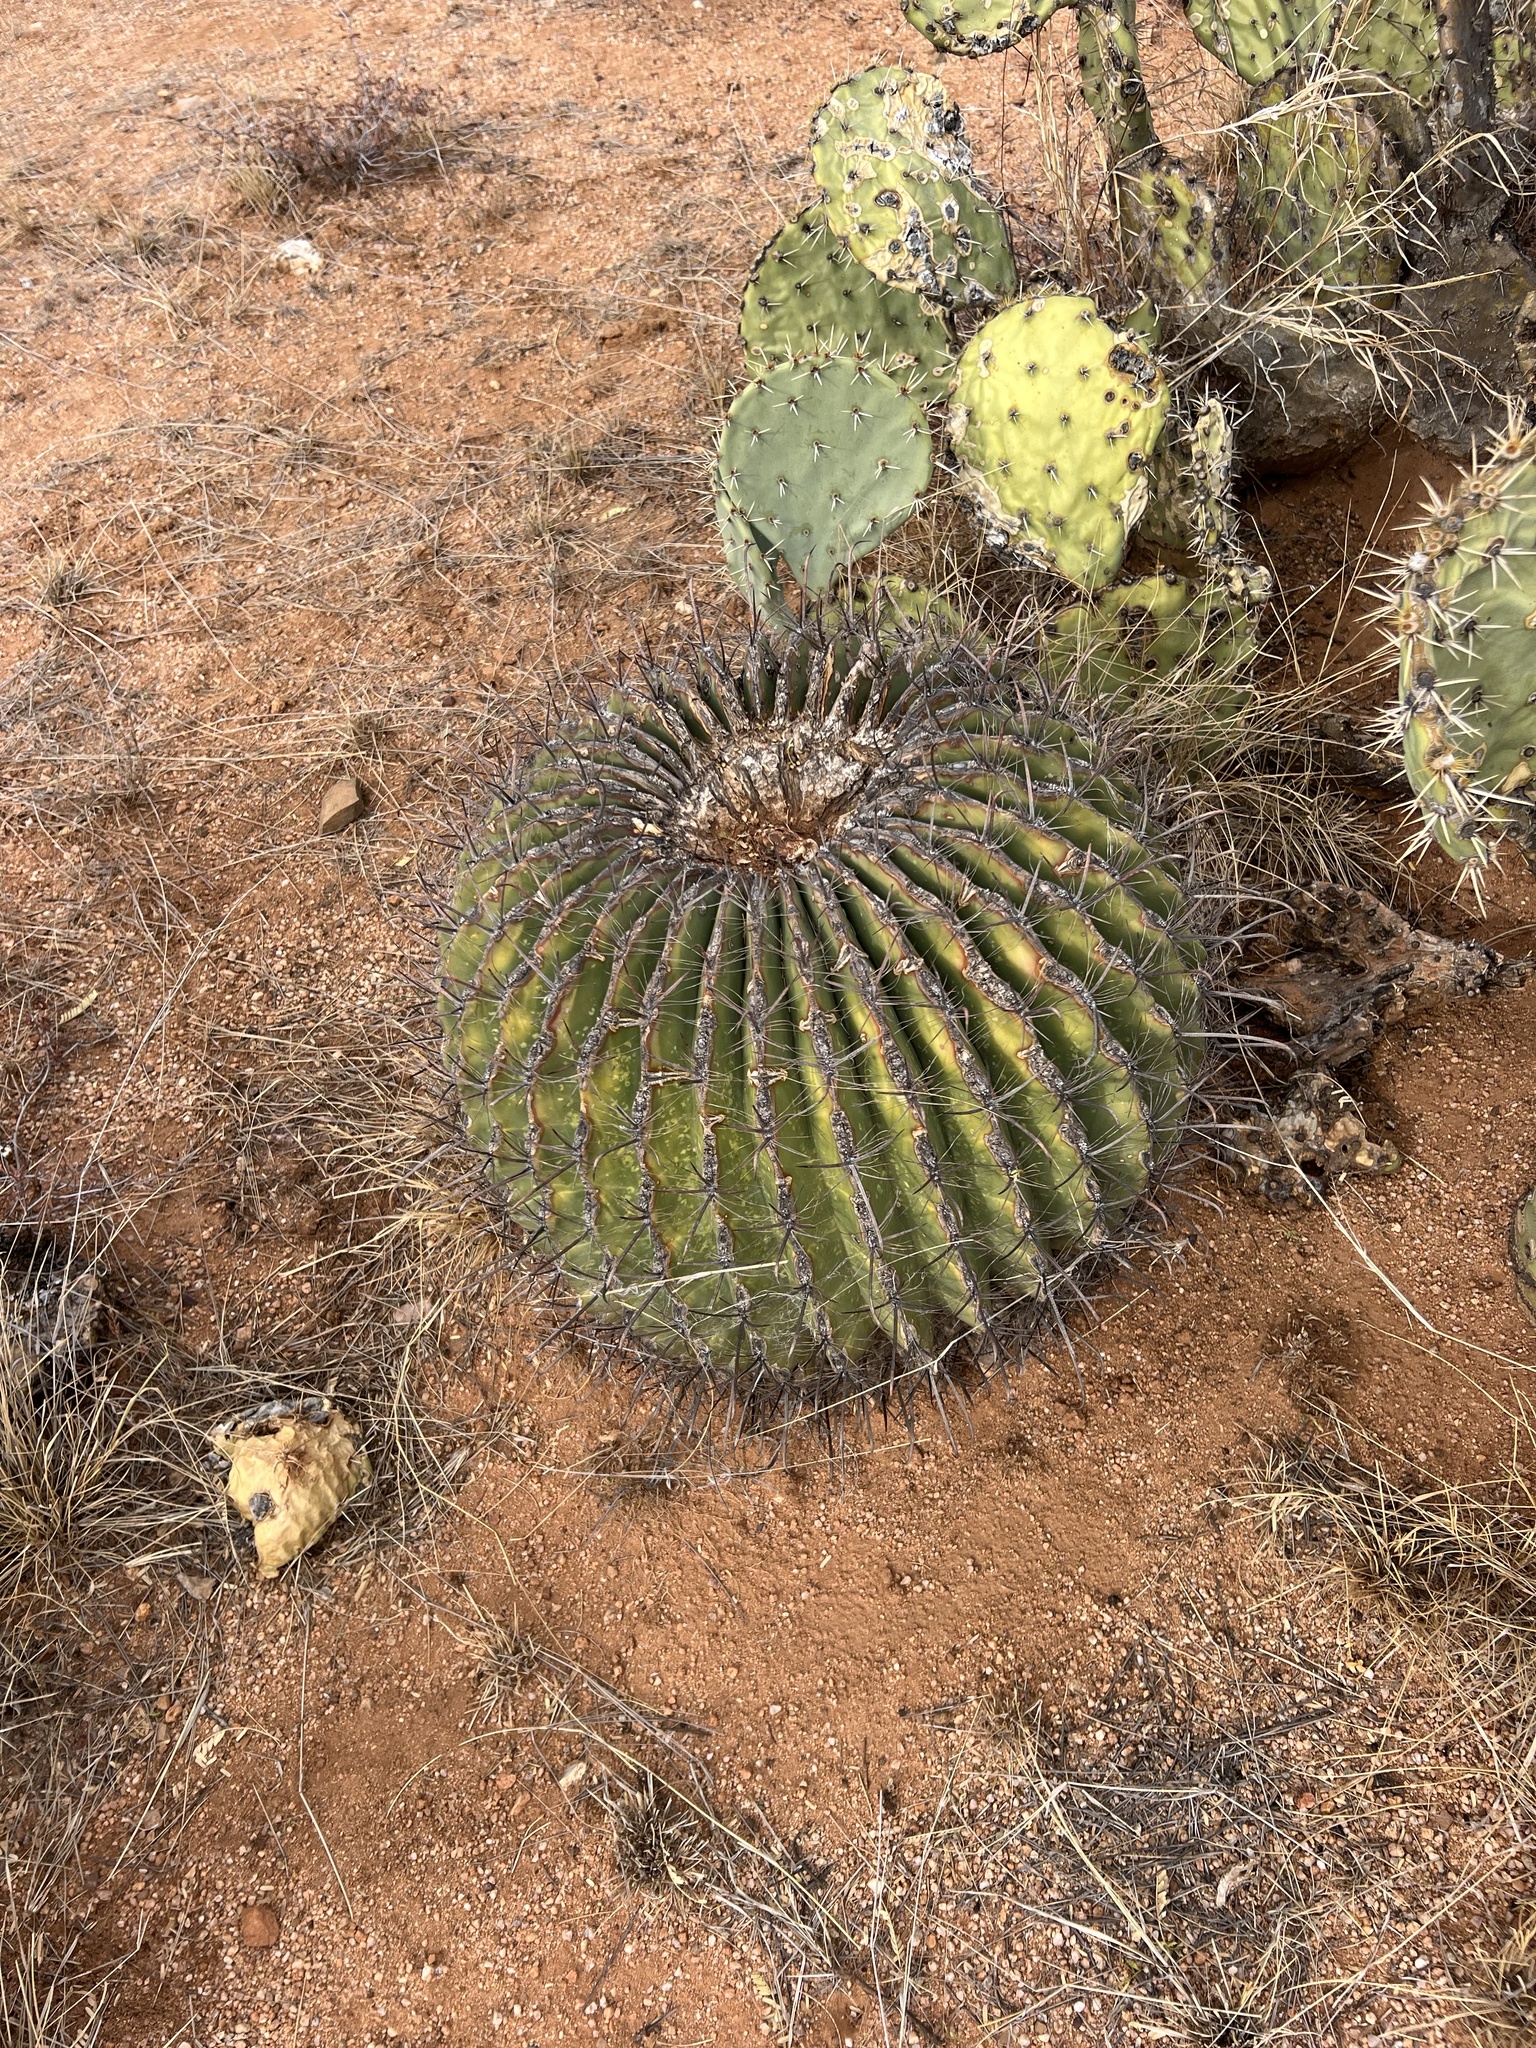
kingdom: Plantae
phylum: Tracheophyta
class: Magnoliopsida
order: Caryophyllales
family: Cactaceae
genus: Ferocactus
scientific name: Ferocactus wislizeni
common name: Candy barrel cactus
